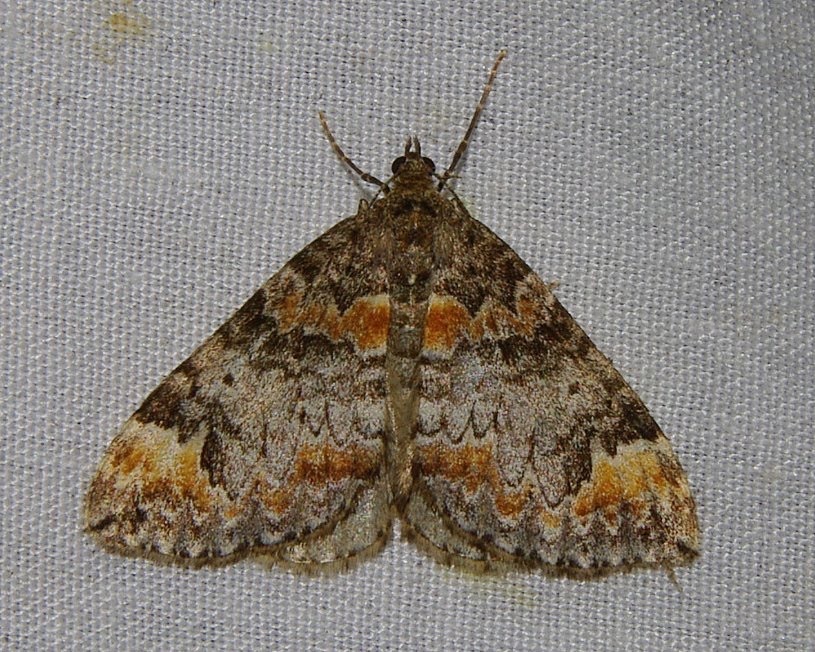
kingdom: Animalia
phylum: Arthropoda
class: Insecta
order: Lepidoptera
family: Geometridae
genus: Dysstroma
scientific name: Dysstroma truncata
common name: Common marbled carpet
